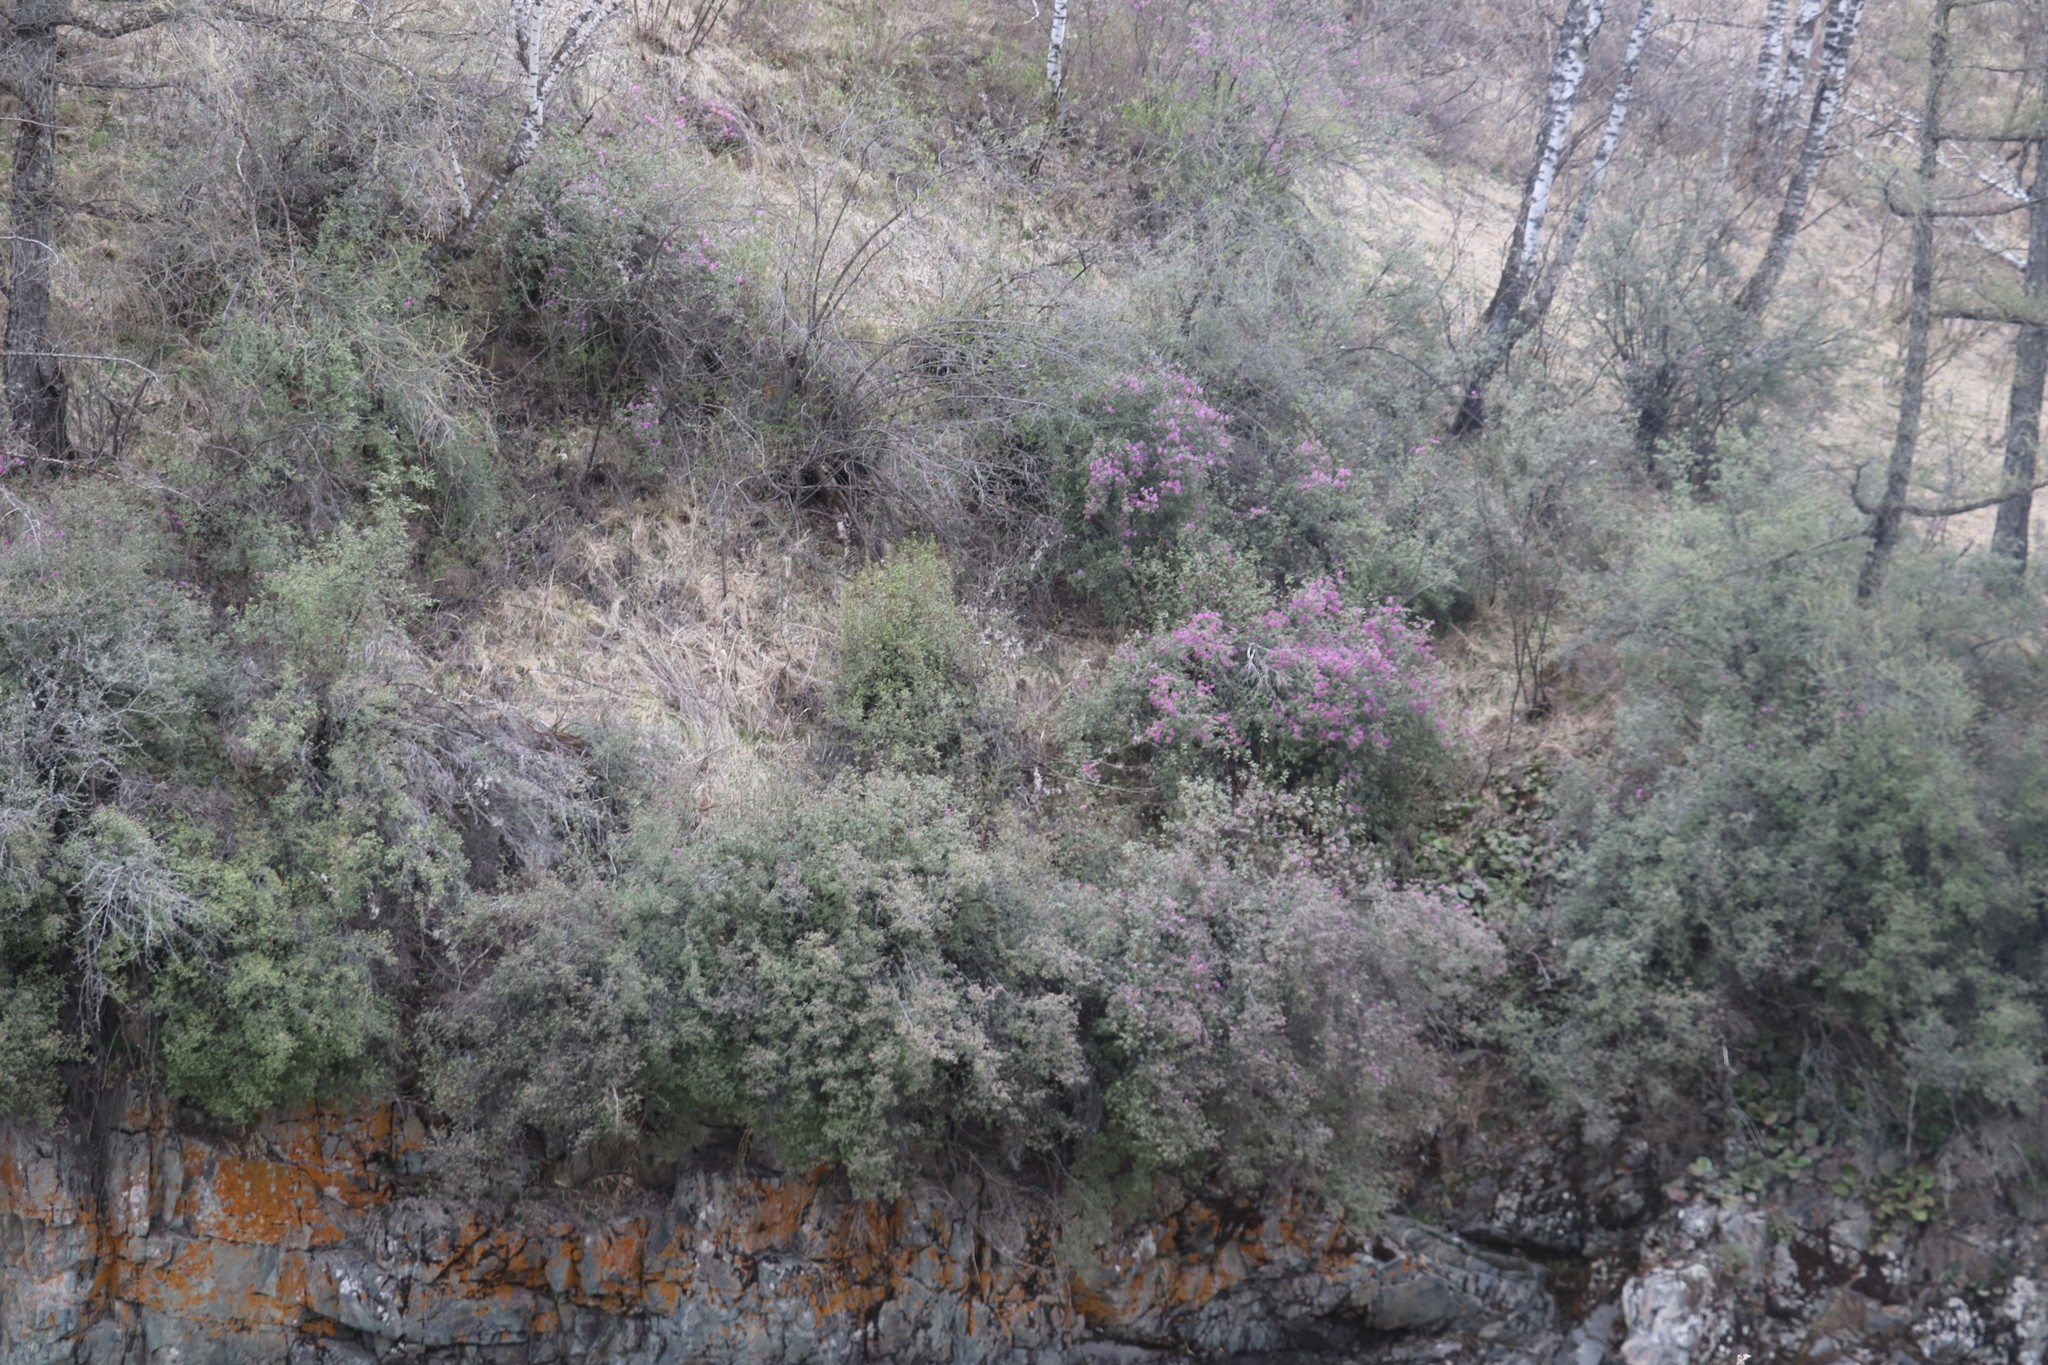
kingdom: Plantae
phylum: Tracheophyta
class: Magnoliopsida
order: Ericales
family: Ericaceae
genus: Rhododendron
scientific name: Rhododendron dauricum
